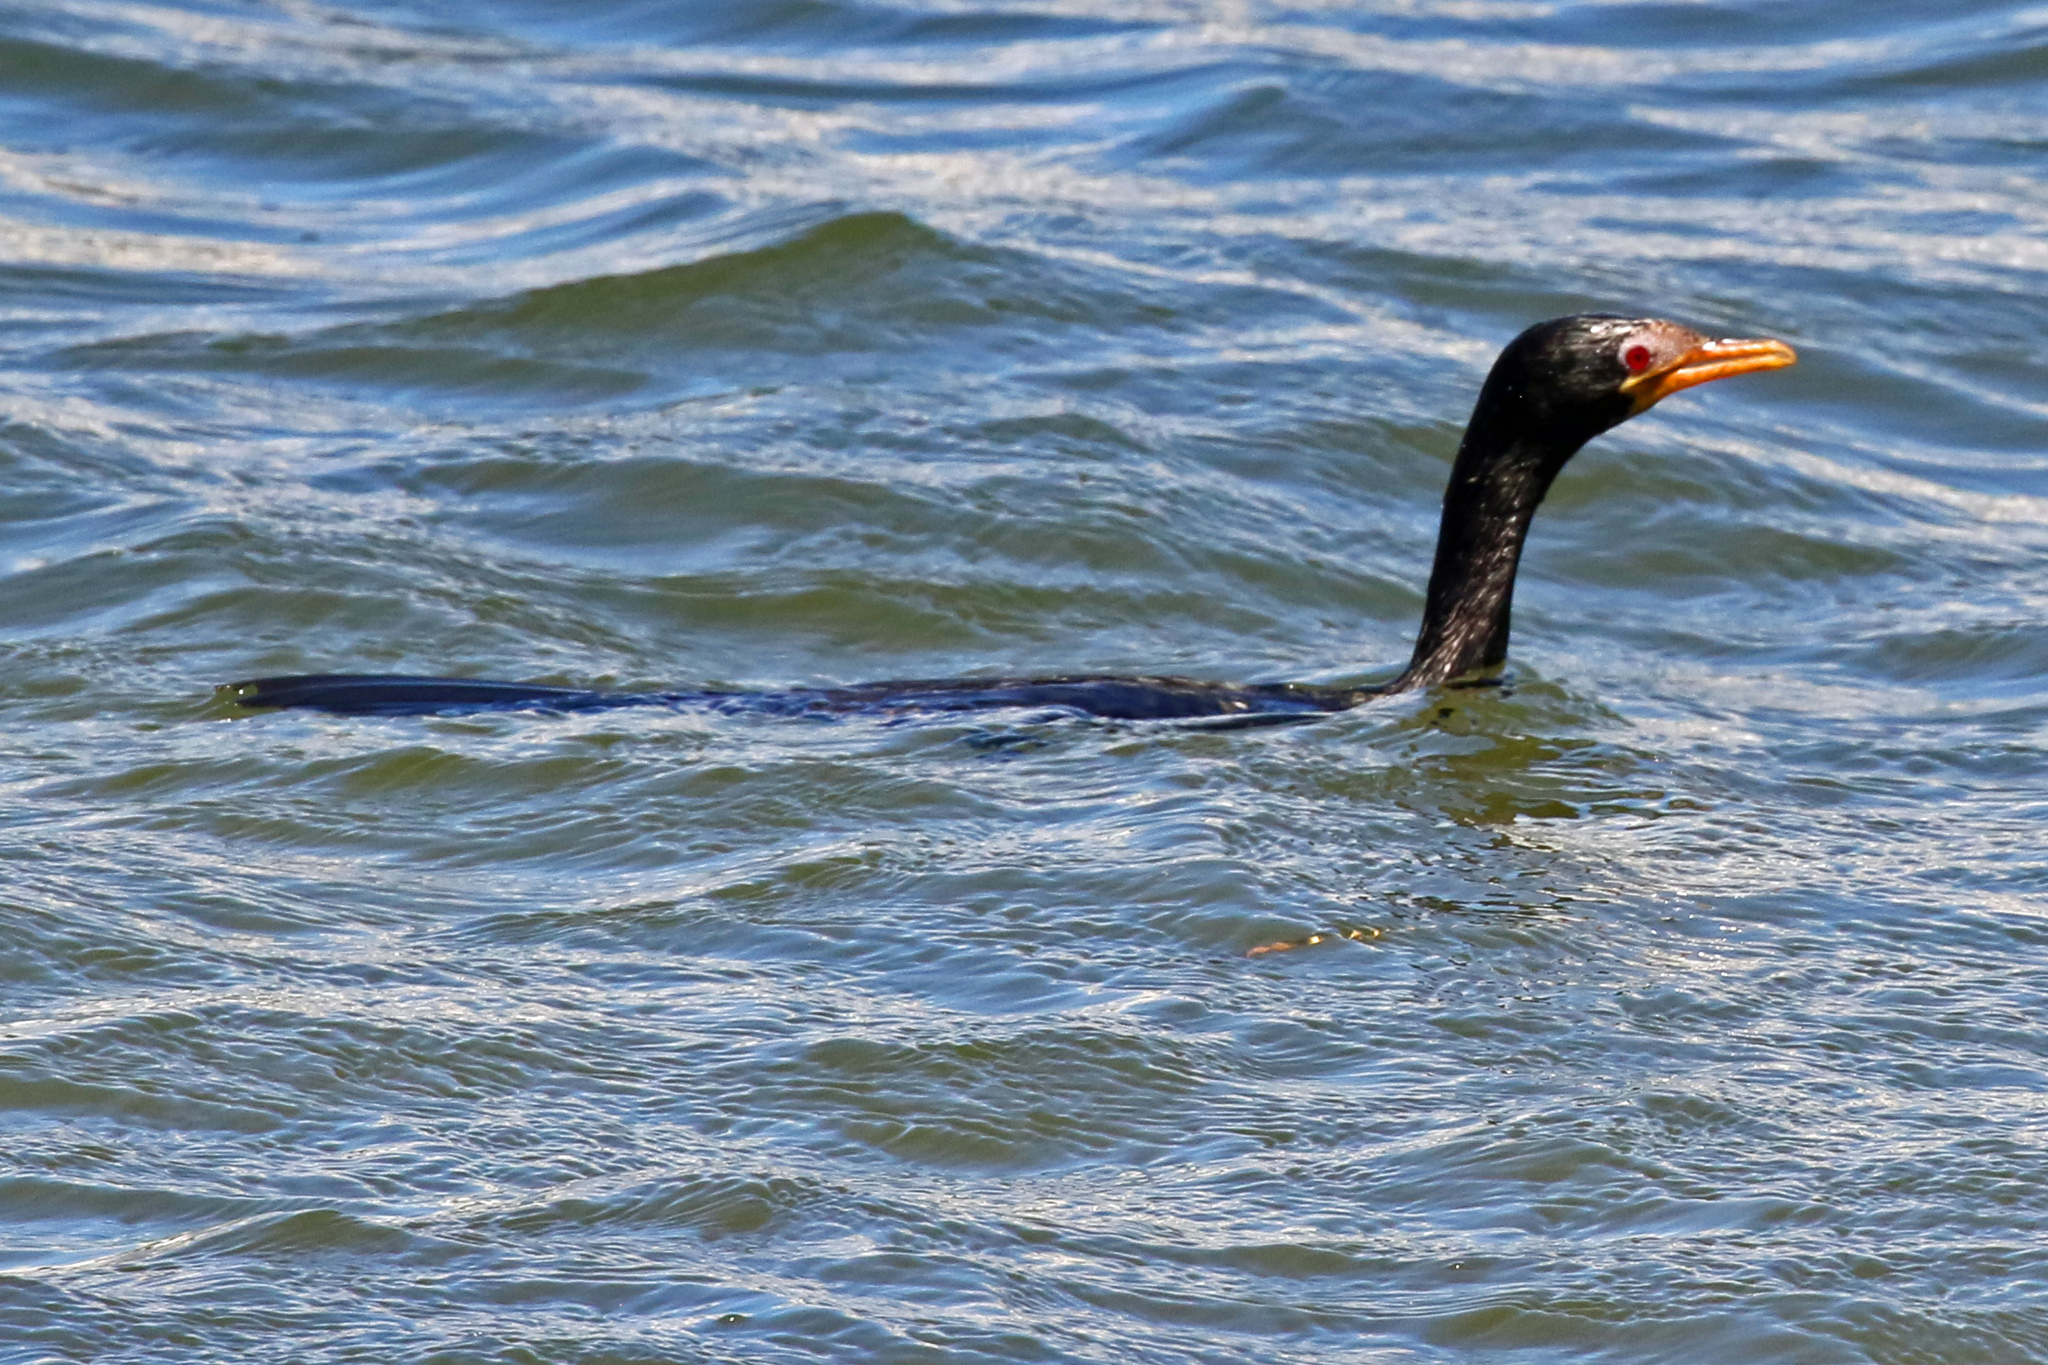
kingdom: Animalia
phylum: Chordata
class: Aves
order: Suliformes
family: Phalacrocoracidae
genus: Microcarbo
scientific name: Microcarbo africanus
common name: Long-tailed cormorant
